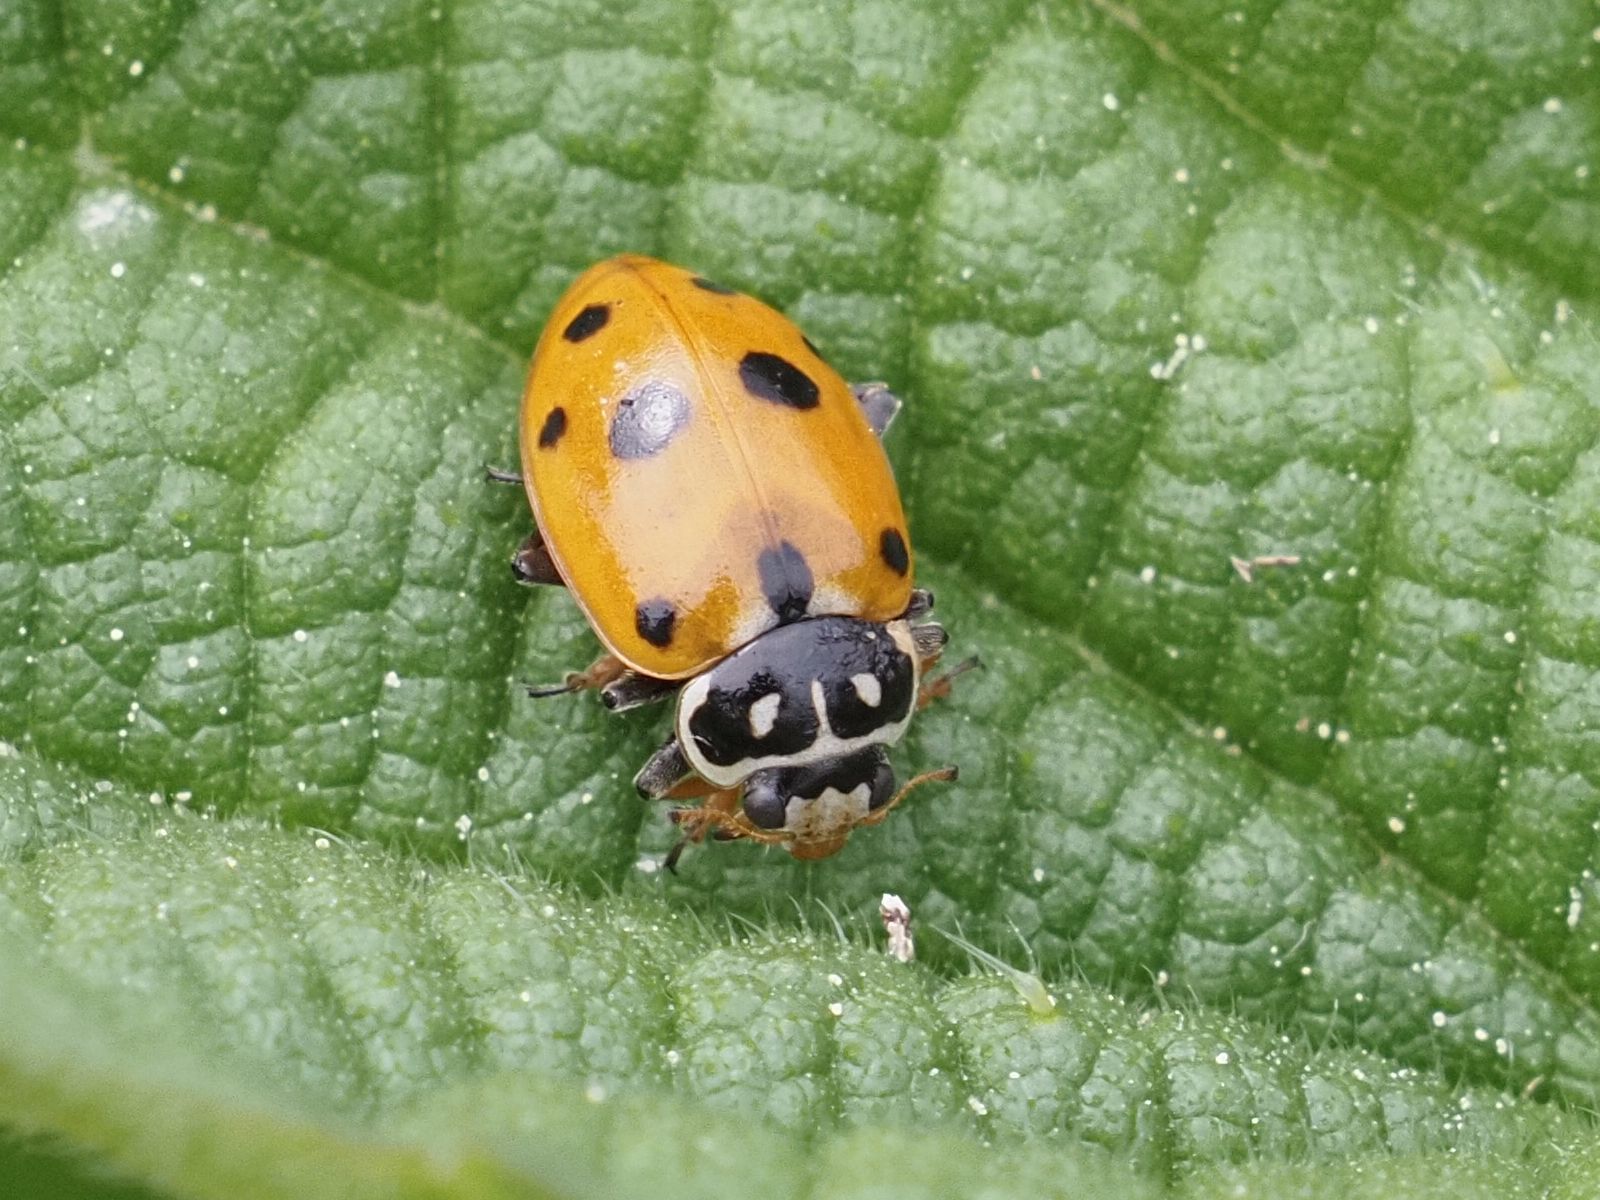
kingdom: Animalia
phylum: Arthropoda
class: Insecta
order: Coleoptera
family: Coccinellidae
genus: Hippodamia
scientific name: Hippodamia variegata
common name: Ladybird beetle
